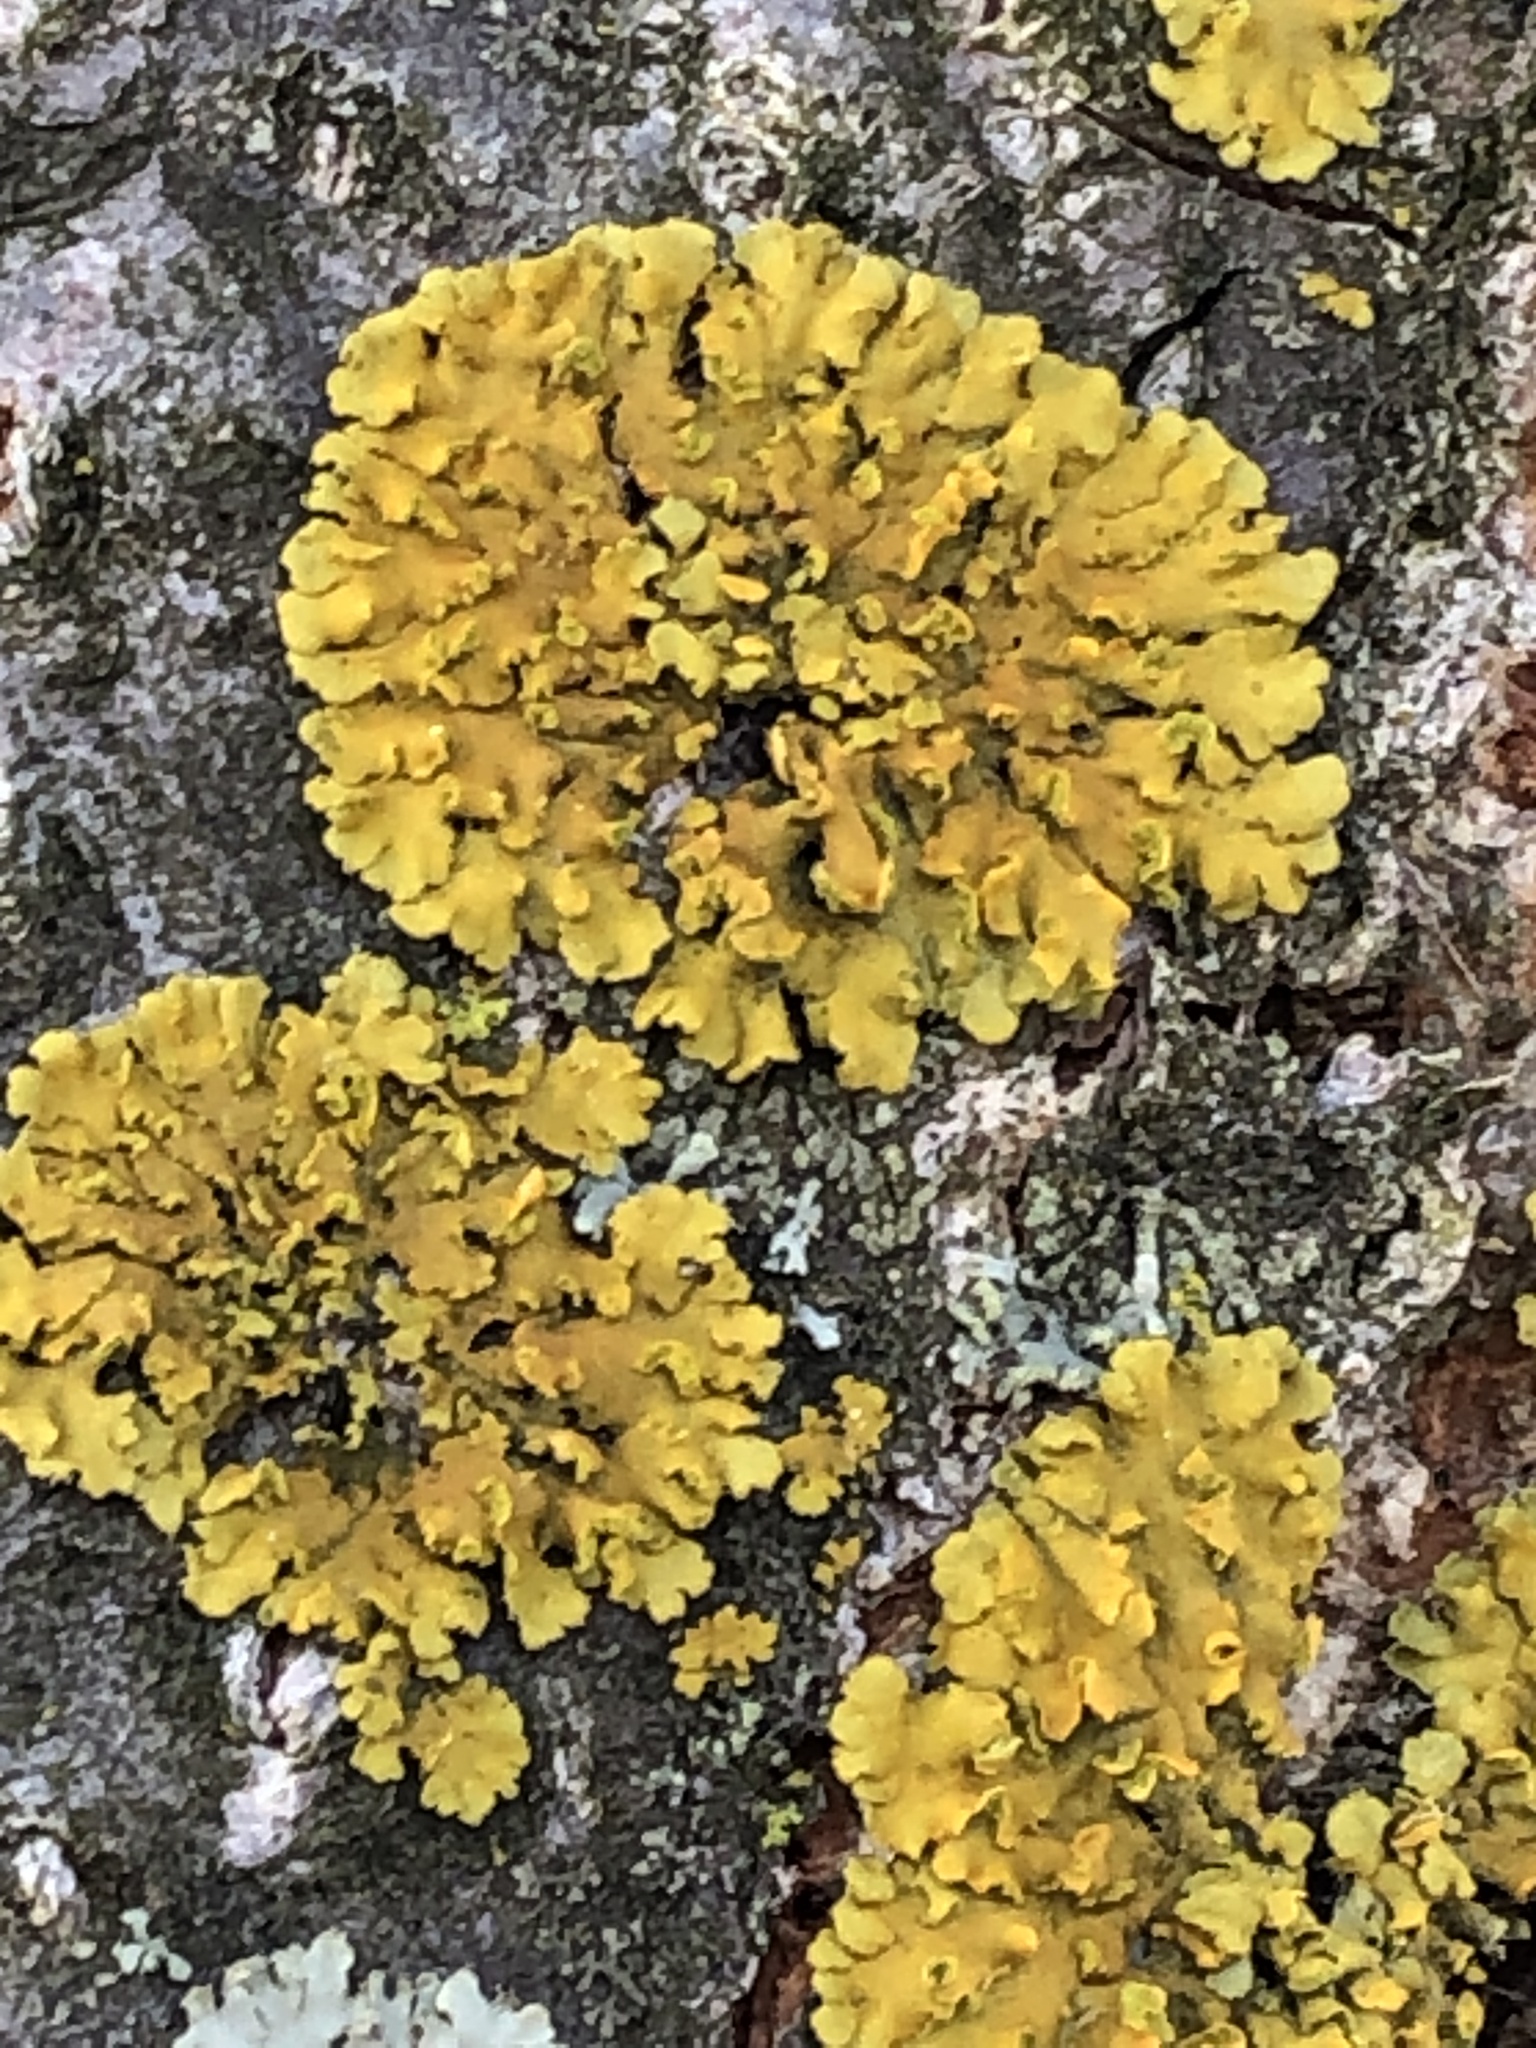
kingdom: Fungi
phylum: Ascomycota
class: Lecanoromycetes
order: Teloschistales
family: Teloschistaceae
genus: Oxneria
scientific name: Oxneria fallax
